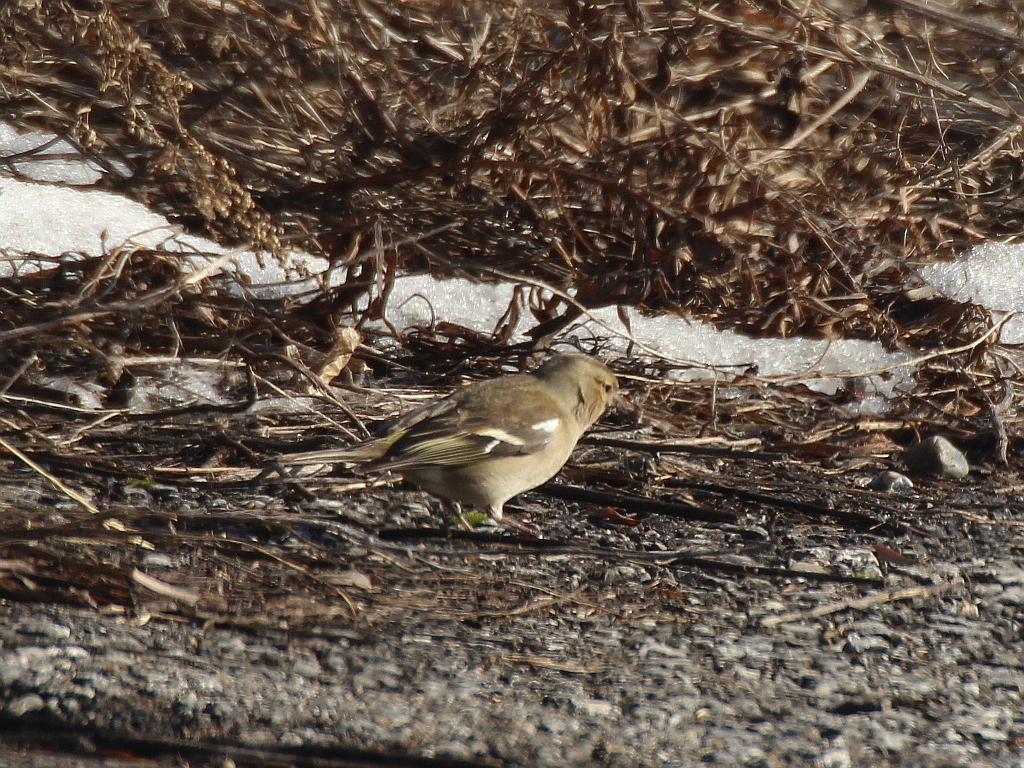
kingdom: Animalia
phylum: Chordata
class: Aves
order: Passeriformes
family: Fringillidae
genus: Fringilla
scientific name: Fringilla coelebs
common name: Common chaffinch
